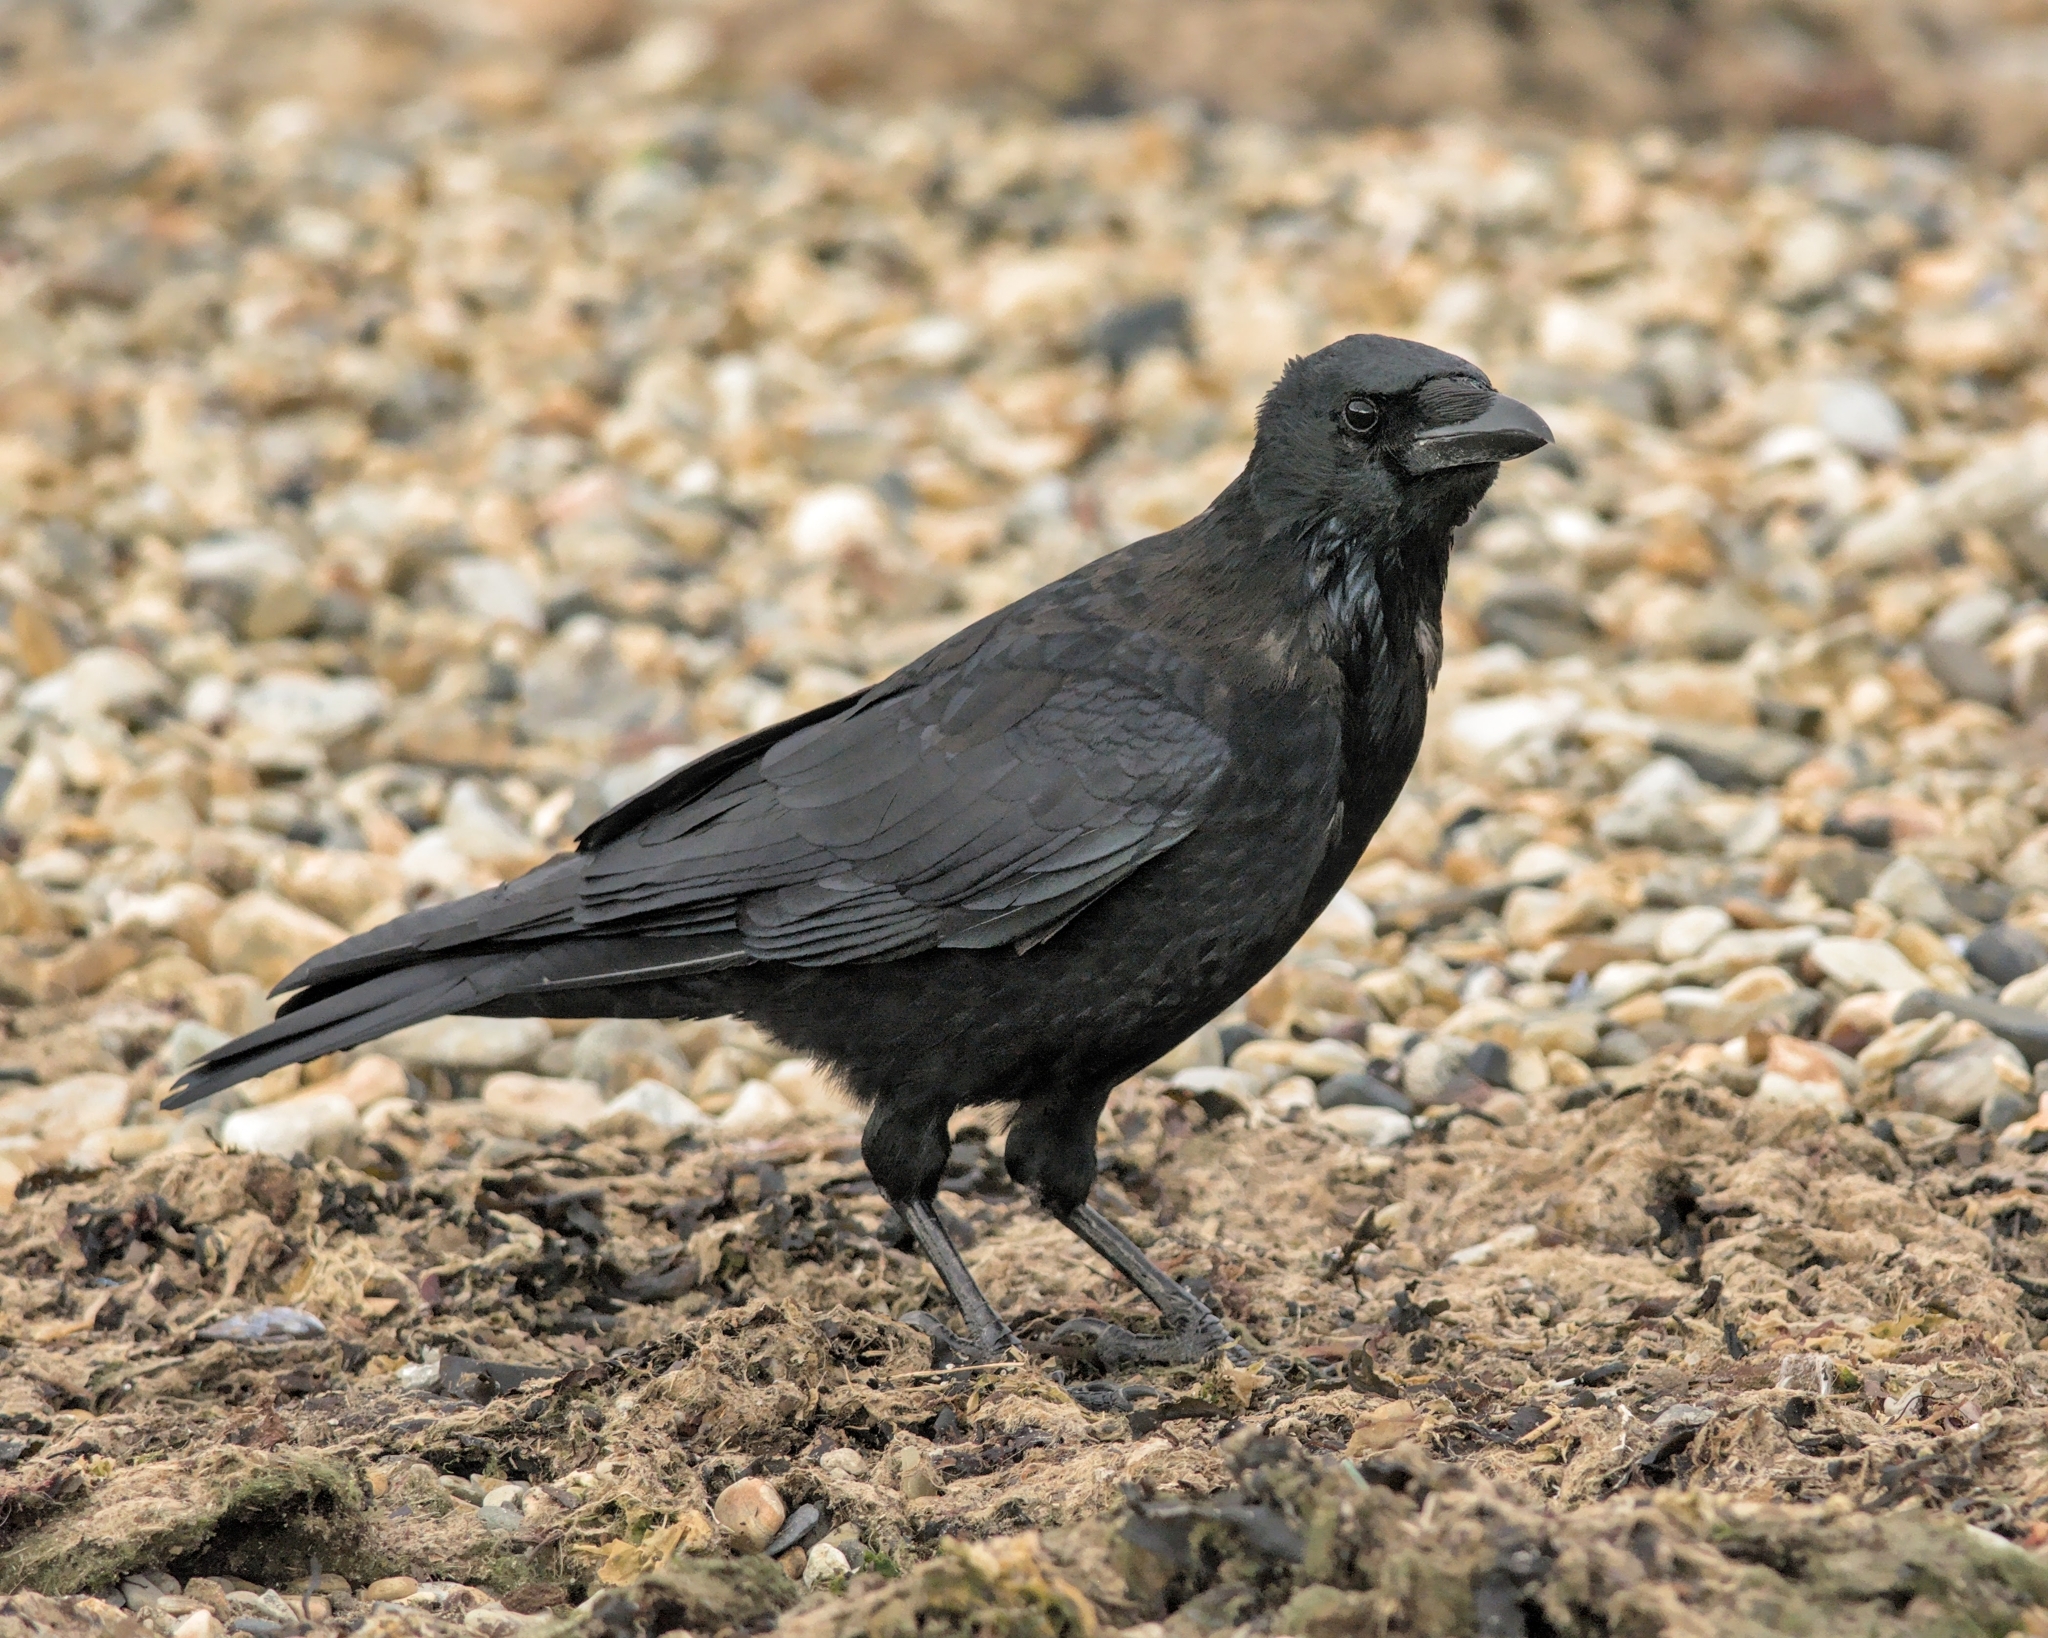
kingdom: Animalia
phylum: Chordata
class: Aves
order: Passeriformes
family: Corvidae
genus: Corvus
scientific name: Corvus corone
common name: Carrion crow
